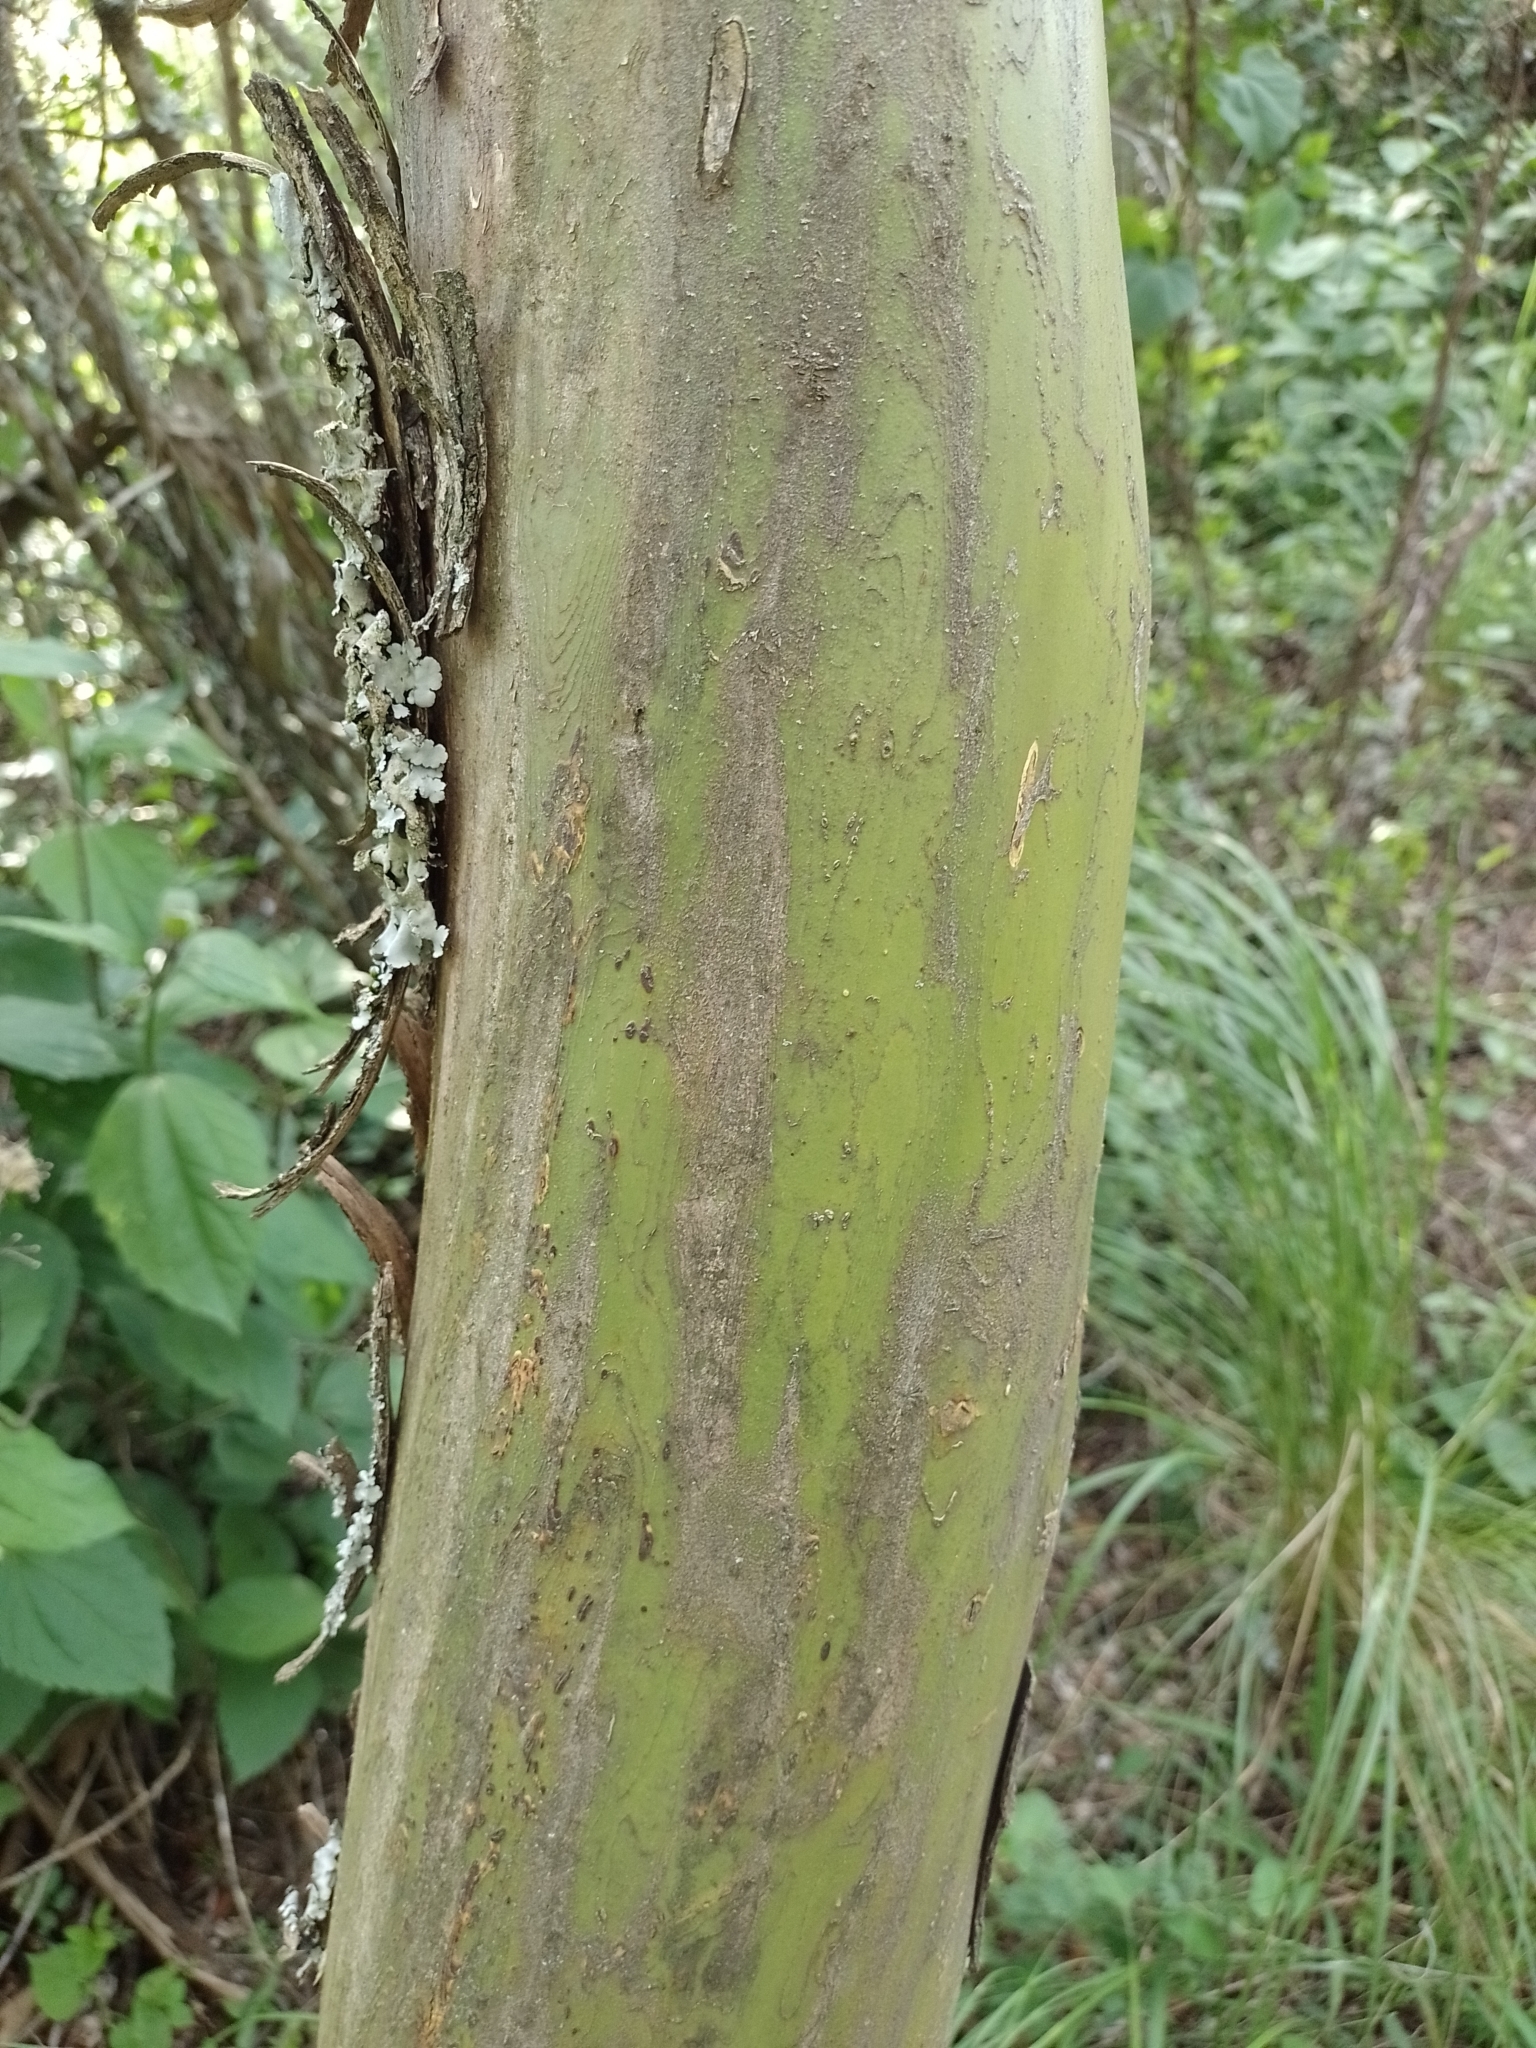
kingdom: Plantae
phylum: Tracheophyta
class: Magnoliopsida
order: Fabales
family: Fabaceae
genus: Geoffroea
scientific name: Geoffroea decorticans
